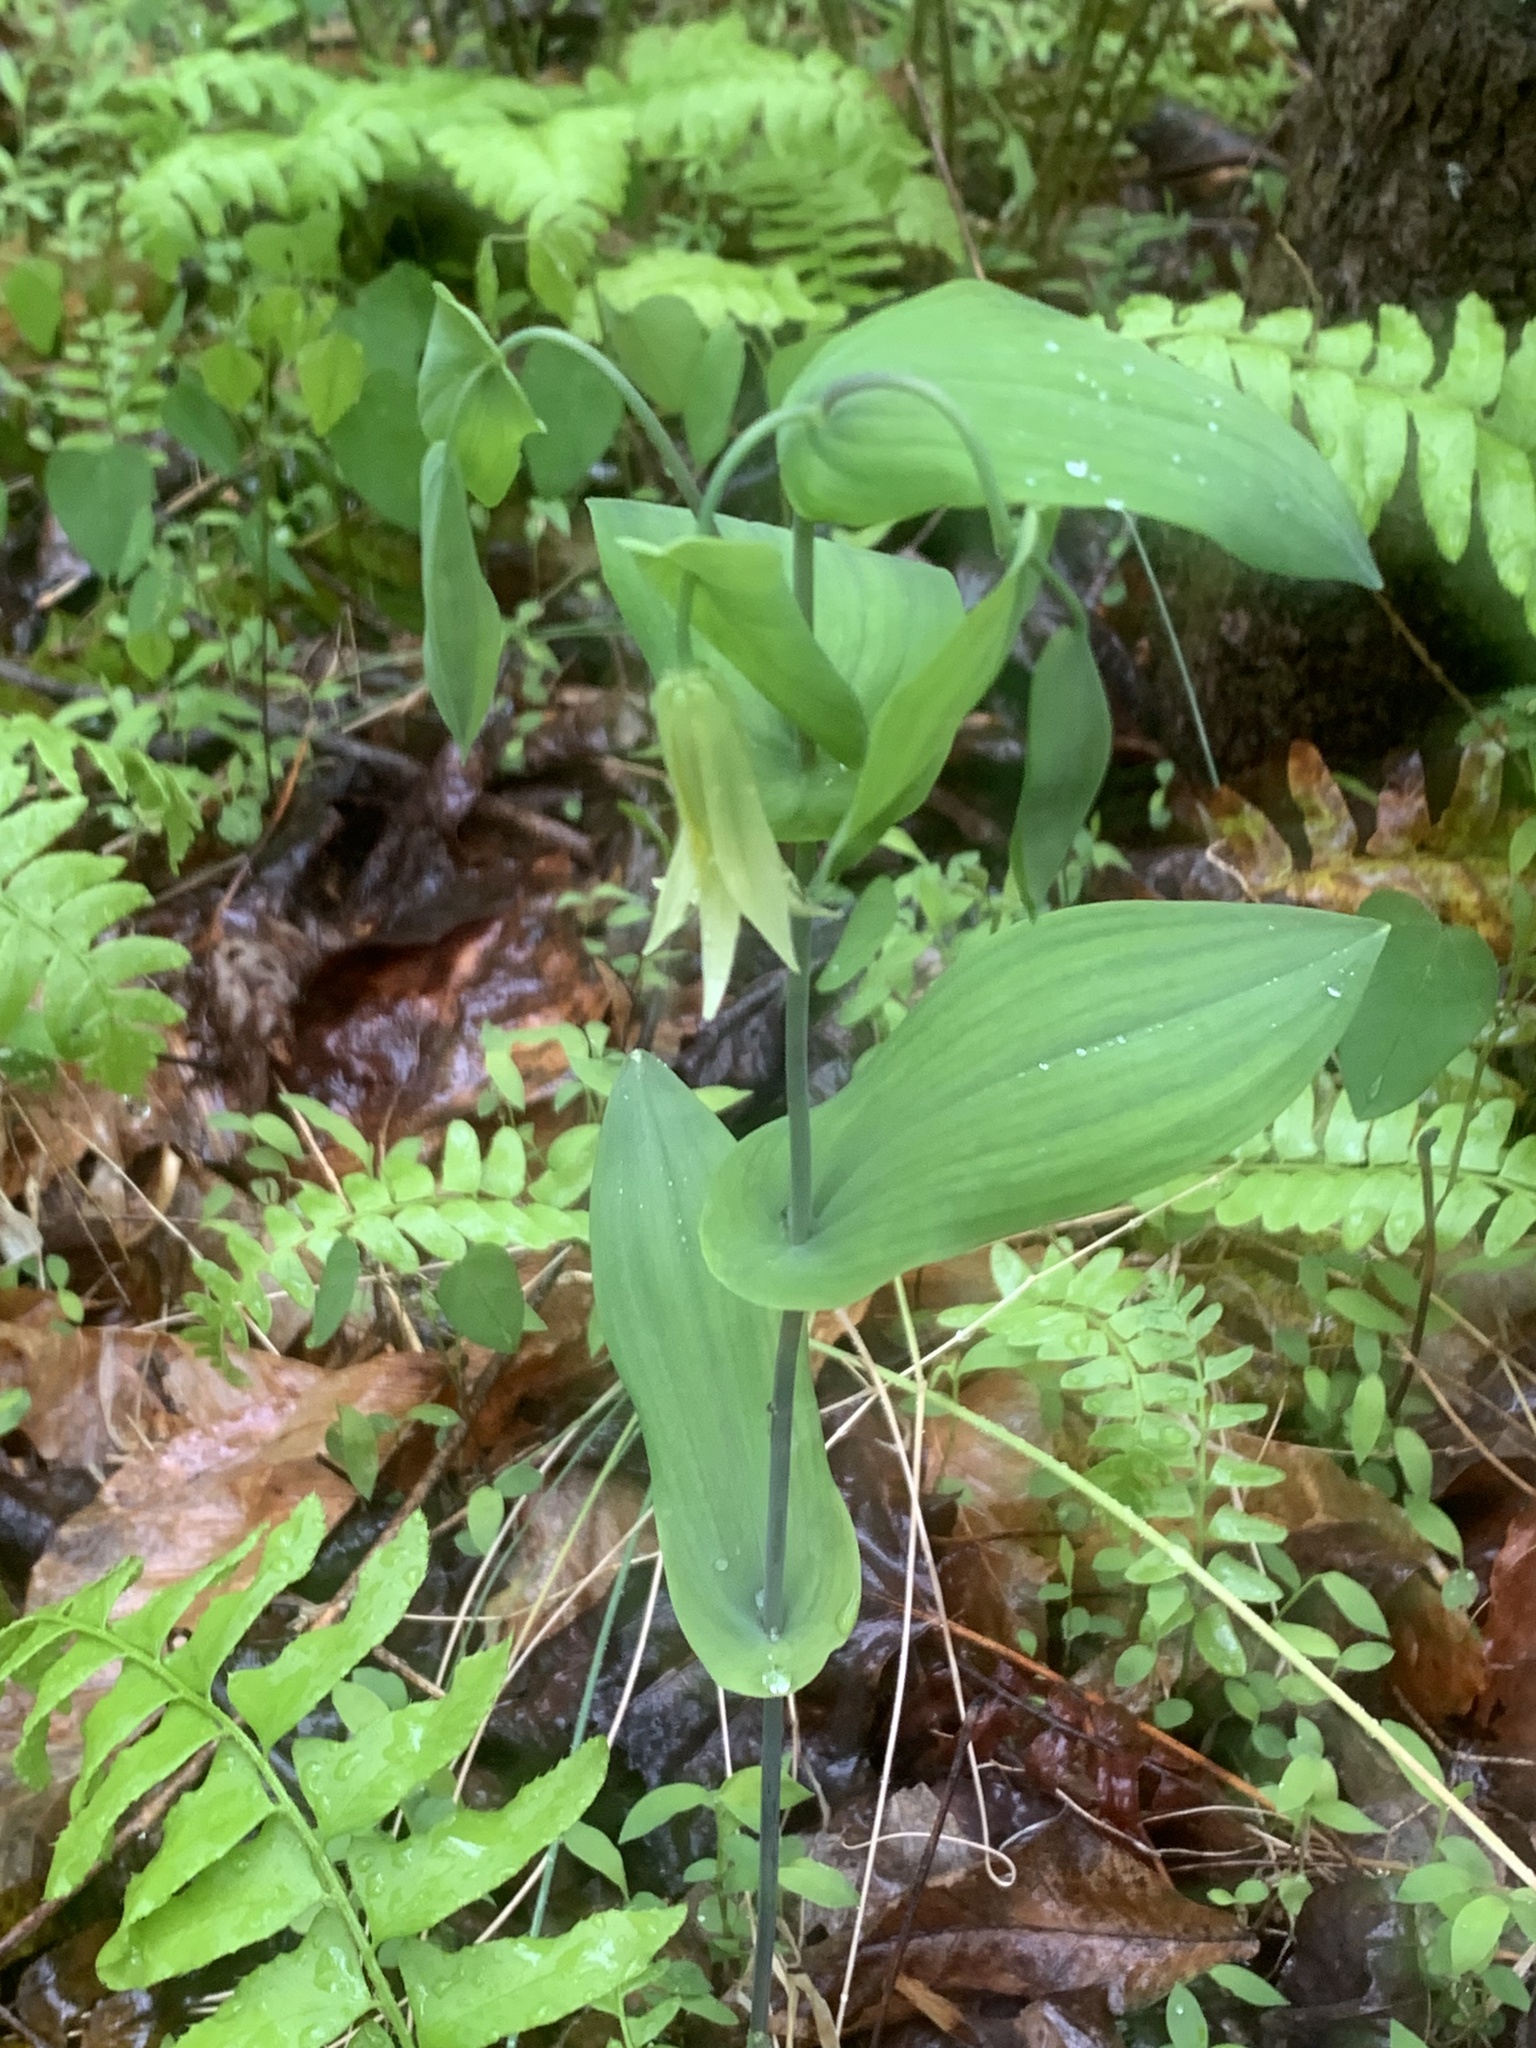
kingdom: Plantae
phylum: Tracheophyta
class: Liliopsida
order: Liliales
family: Colchicaceae
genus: Uvularia
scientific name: Uvularia perfoliata
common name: Perfoliate bellwort
